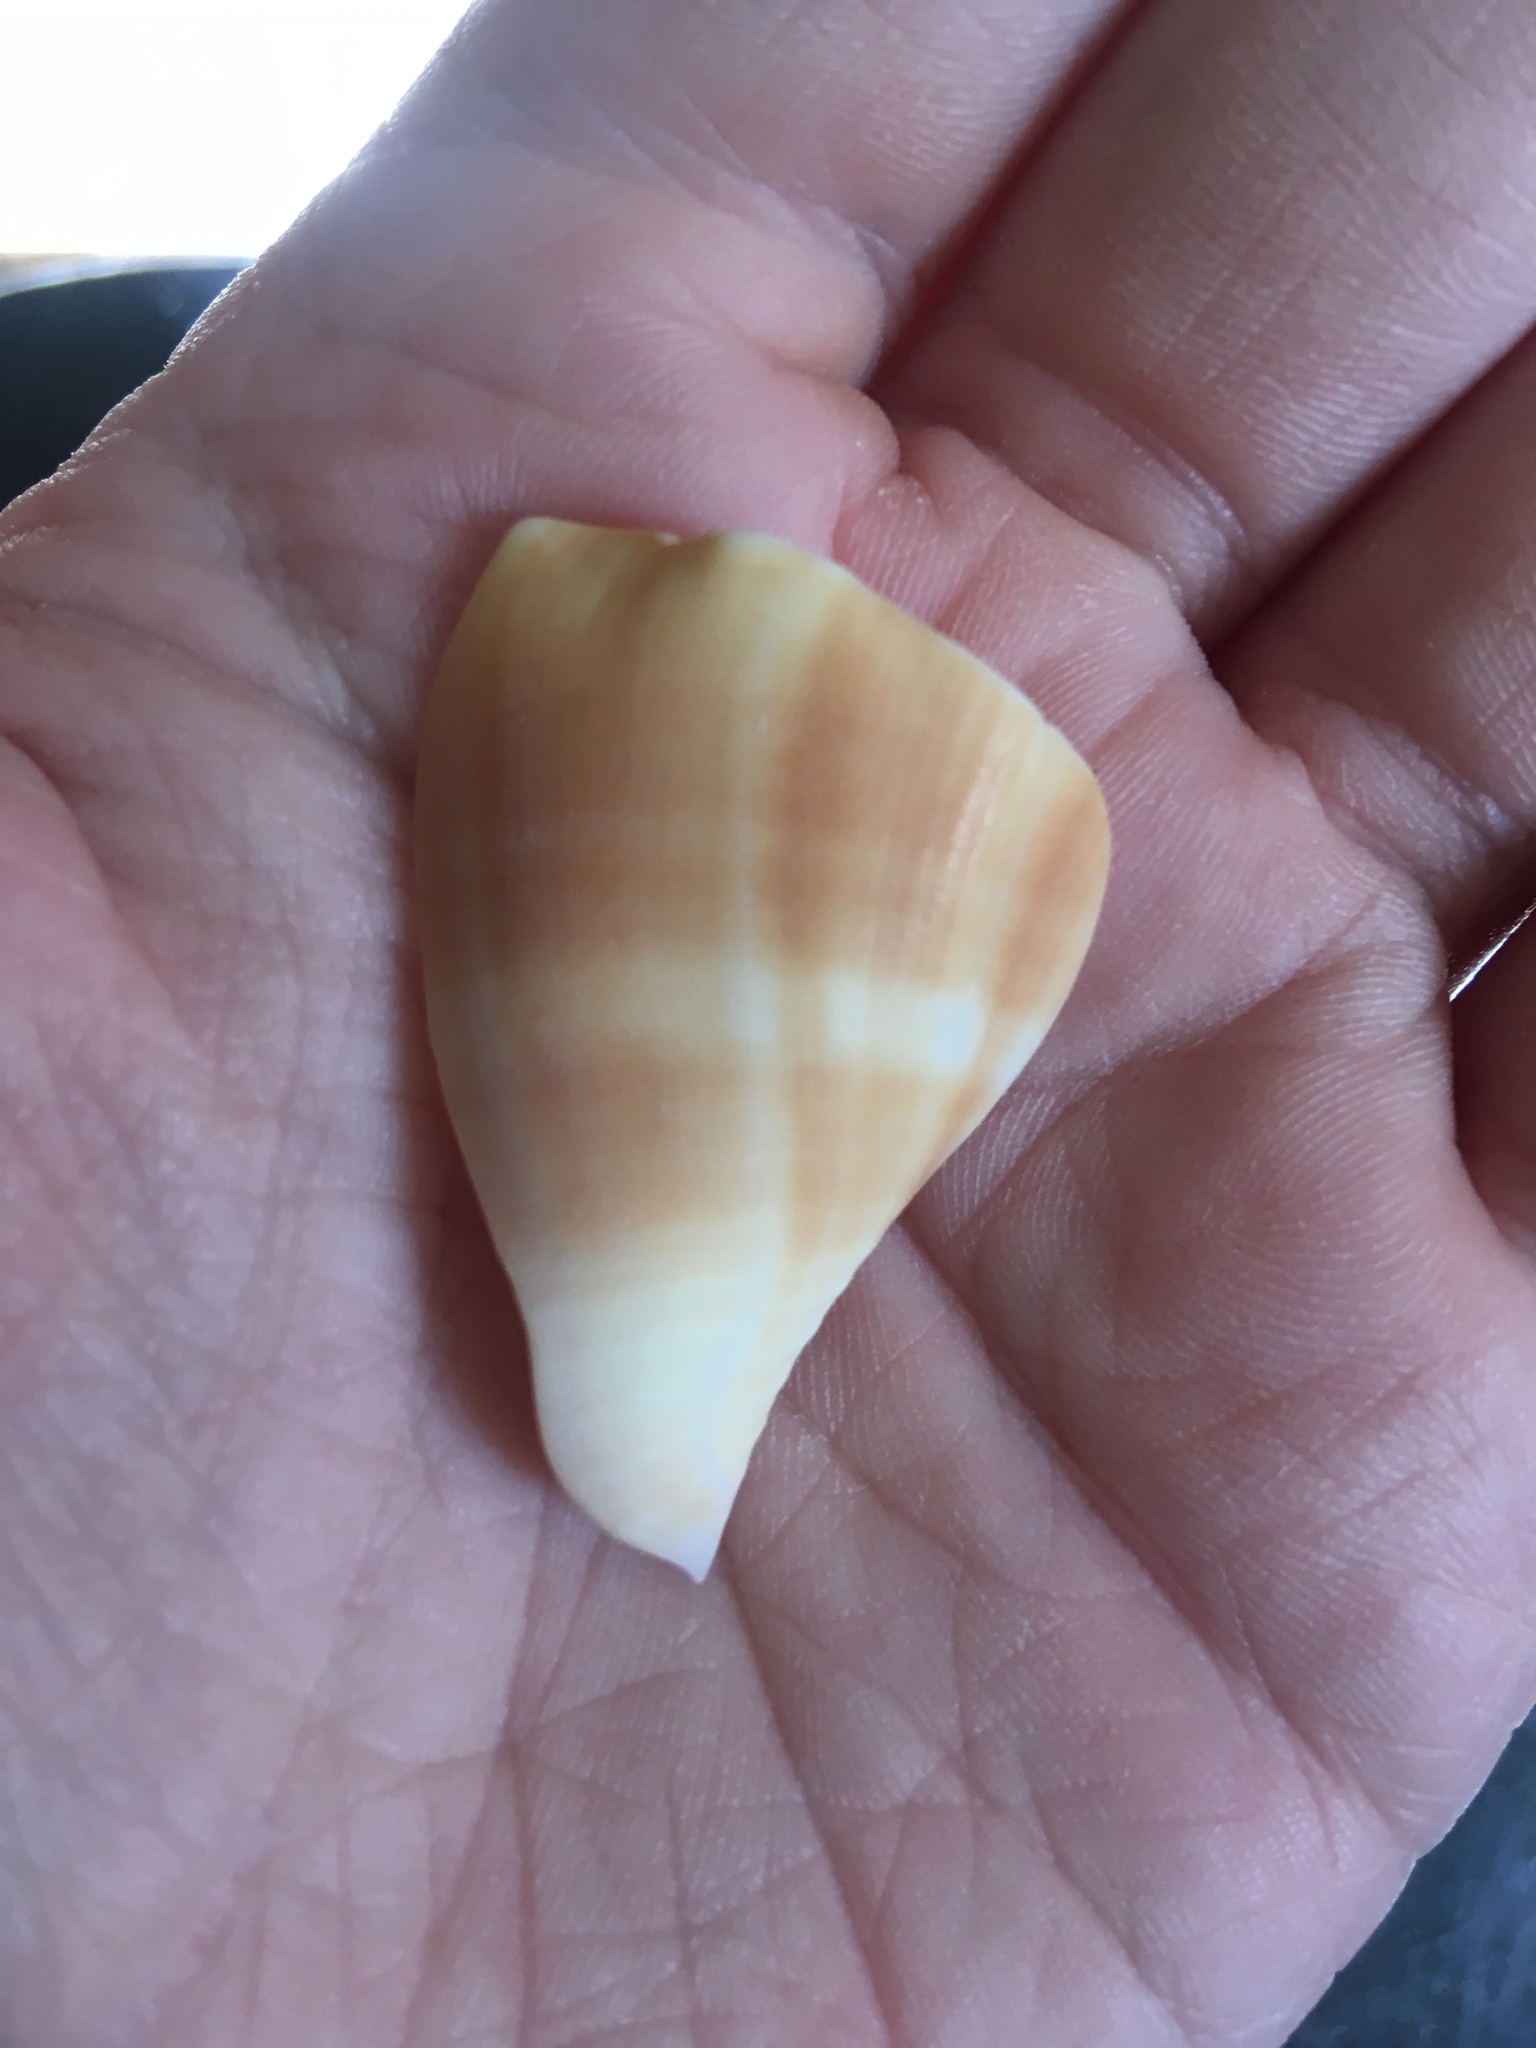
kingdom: Animalia
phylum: Mollusca
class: Gastropoda
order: Littorinimorpha
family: Strombidae
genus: Strombus
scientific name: Strombus alatus
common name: Florida fighting conch
